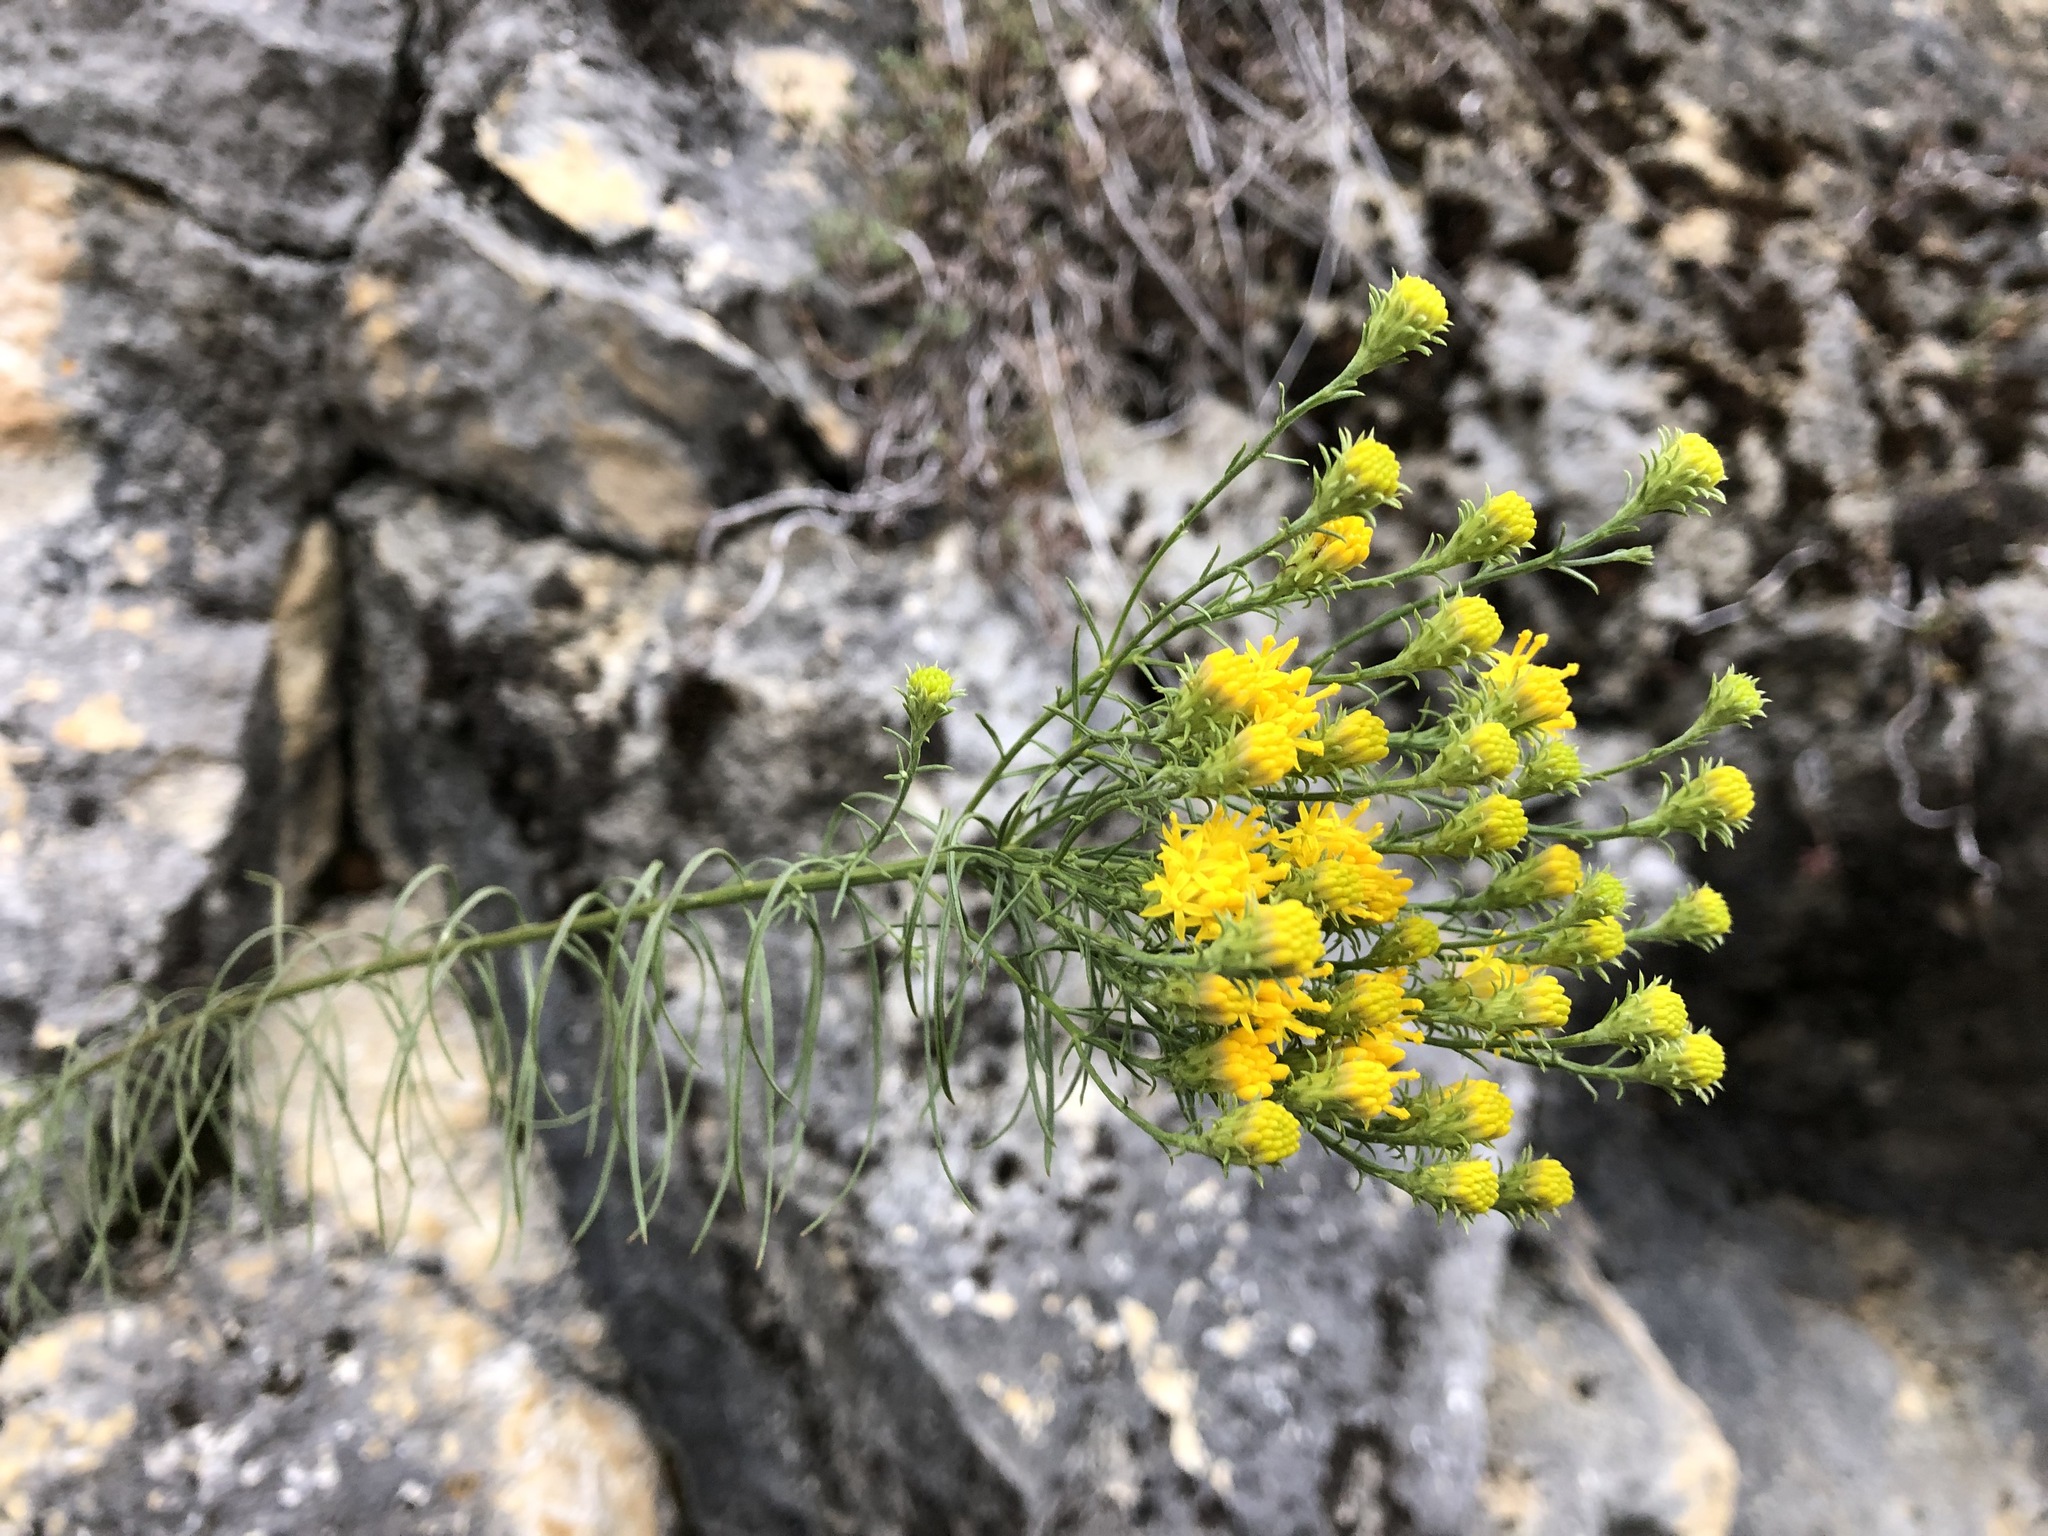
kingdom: Plantae
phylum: Tracheophyta
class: Magnoliopsida
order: Asterales
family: Asteraceae
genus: Galatella
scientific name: Galatella linosyris
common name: Goldilocks aster
